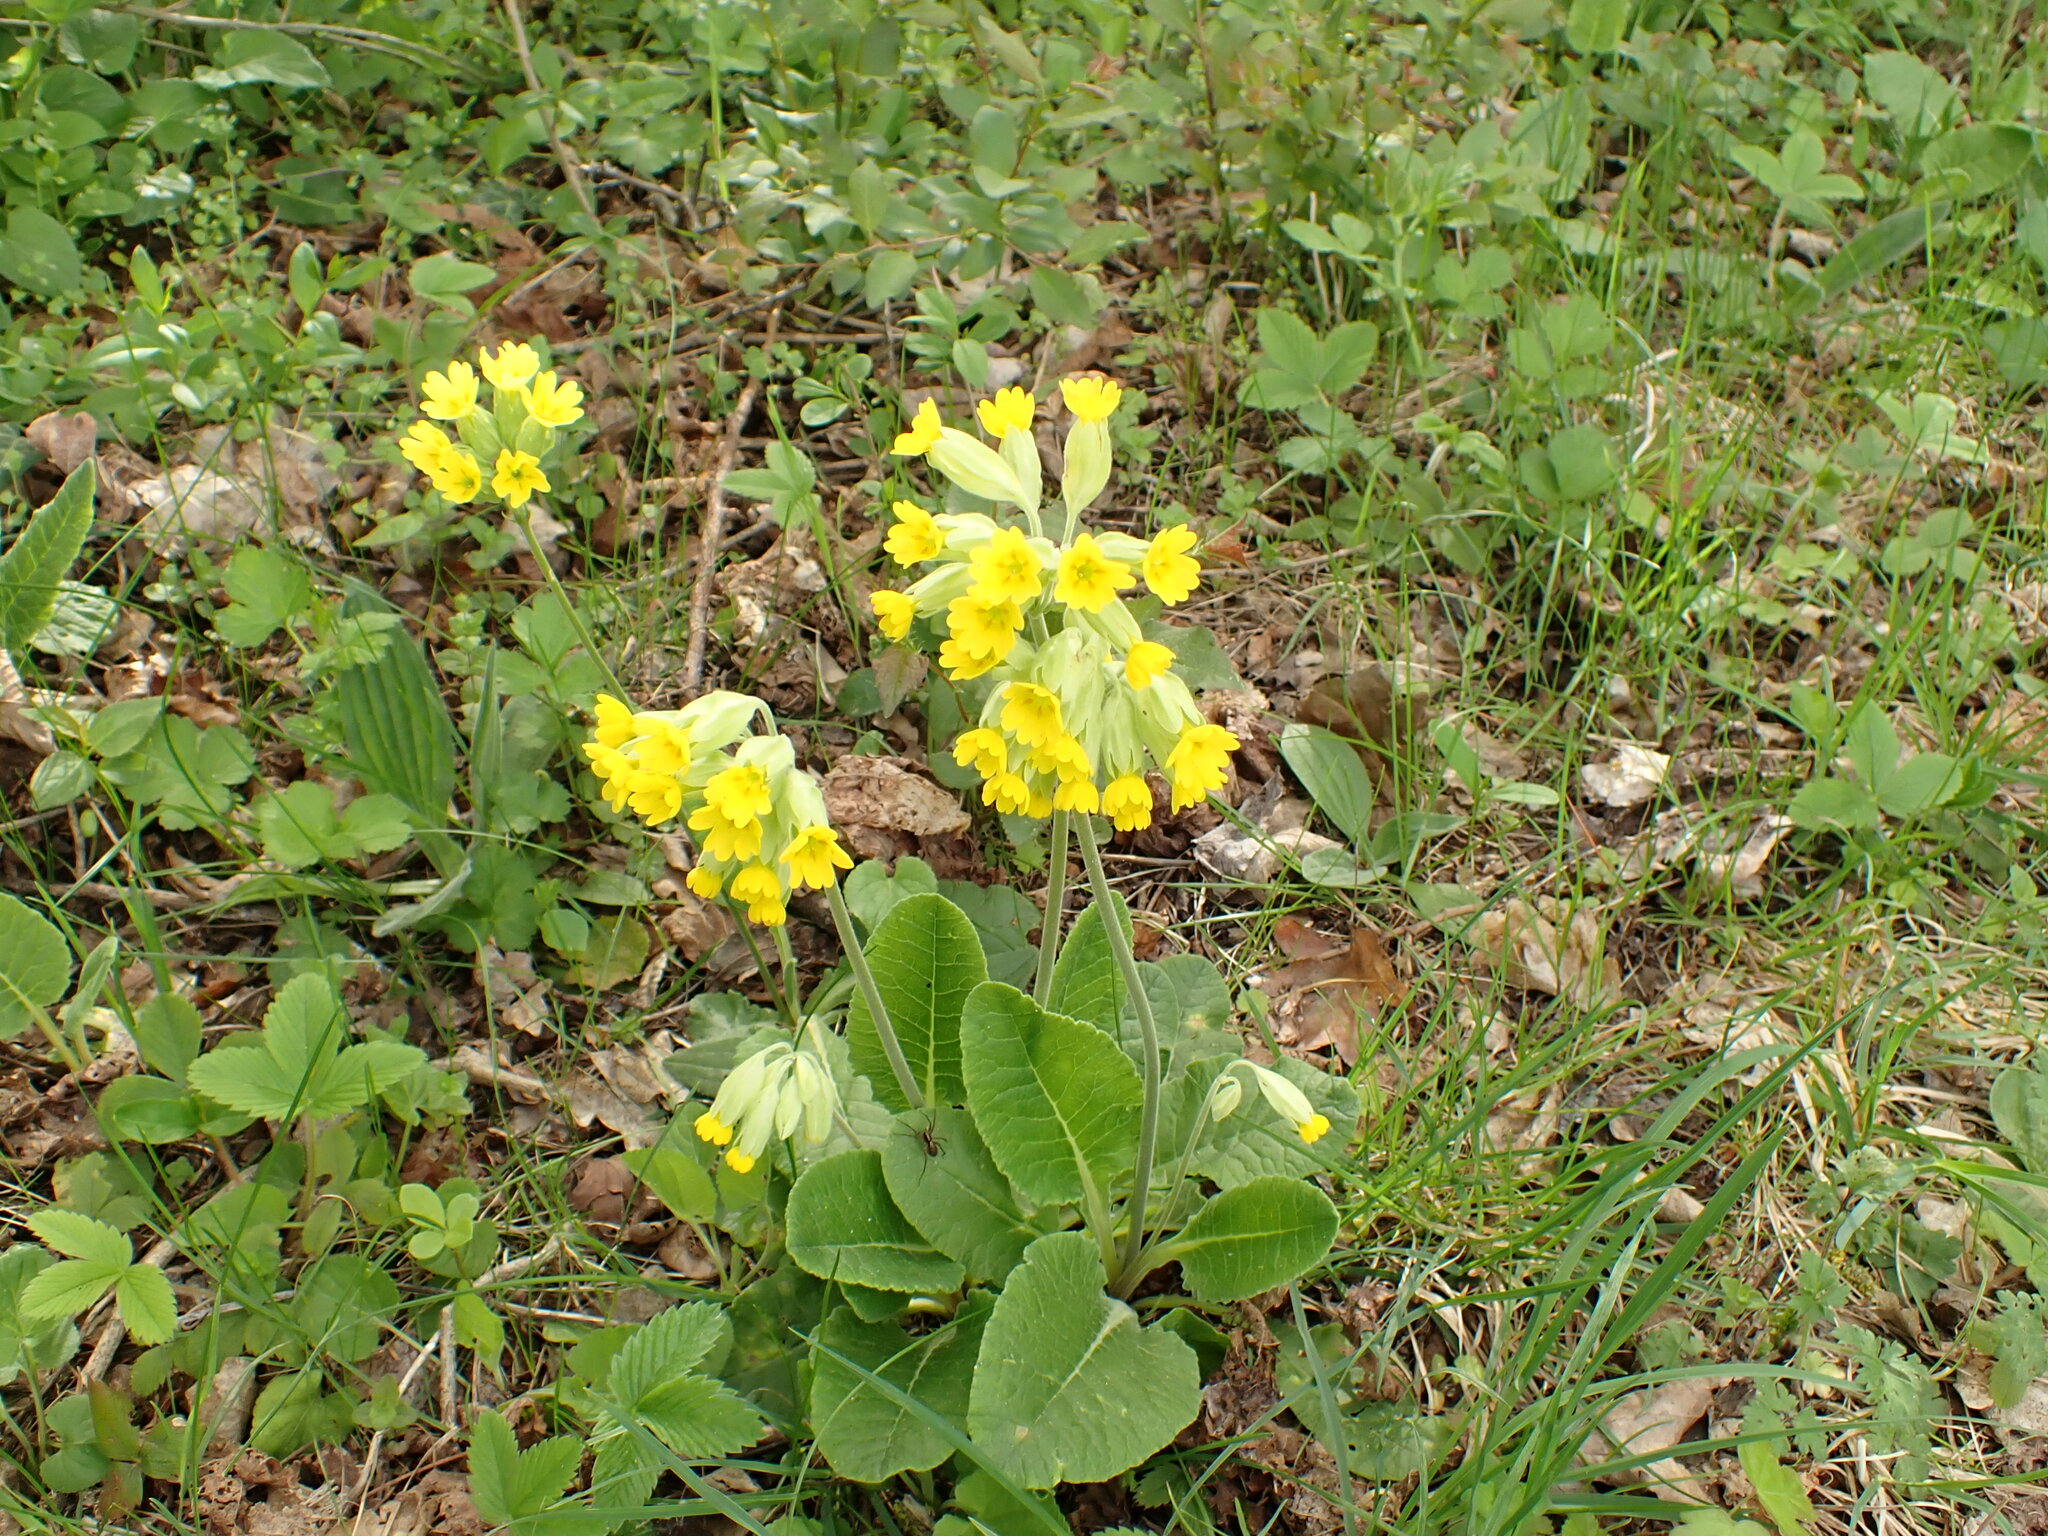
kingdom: Plantae
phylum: Tracheophyta
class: Magnoliopsida
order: Ericales
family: Primulaceae
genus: Primula
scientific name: Primula veris
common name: Cowslip
